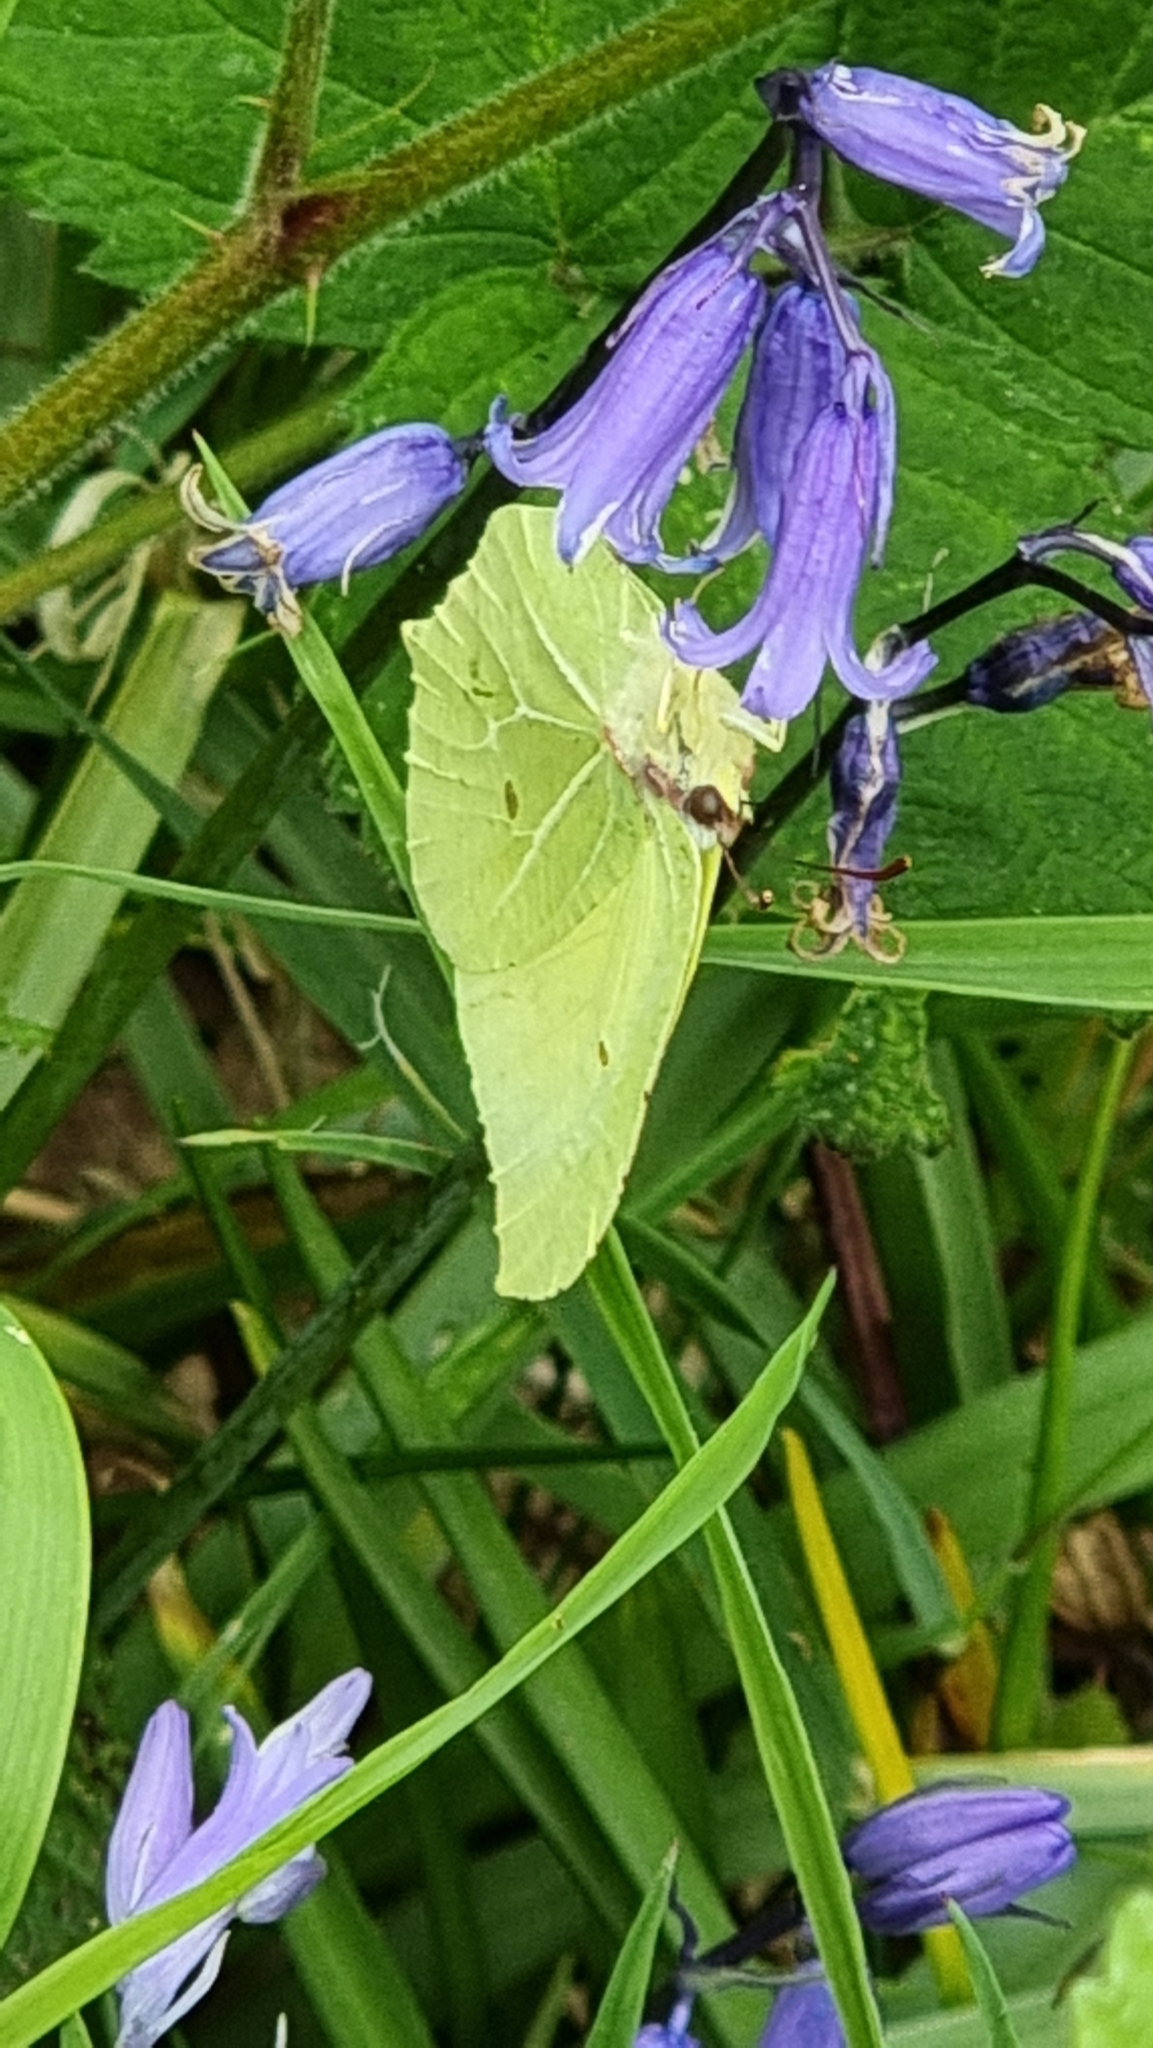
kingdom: Animalia
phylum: Arthropoda
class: Insecta
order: Lepidoptera
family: Pieridae
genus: Gonepteryx
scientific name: Gonepteryx rhamni
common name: Brimstone
